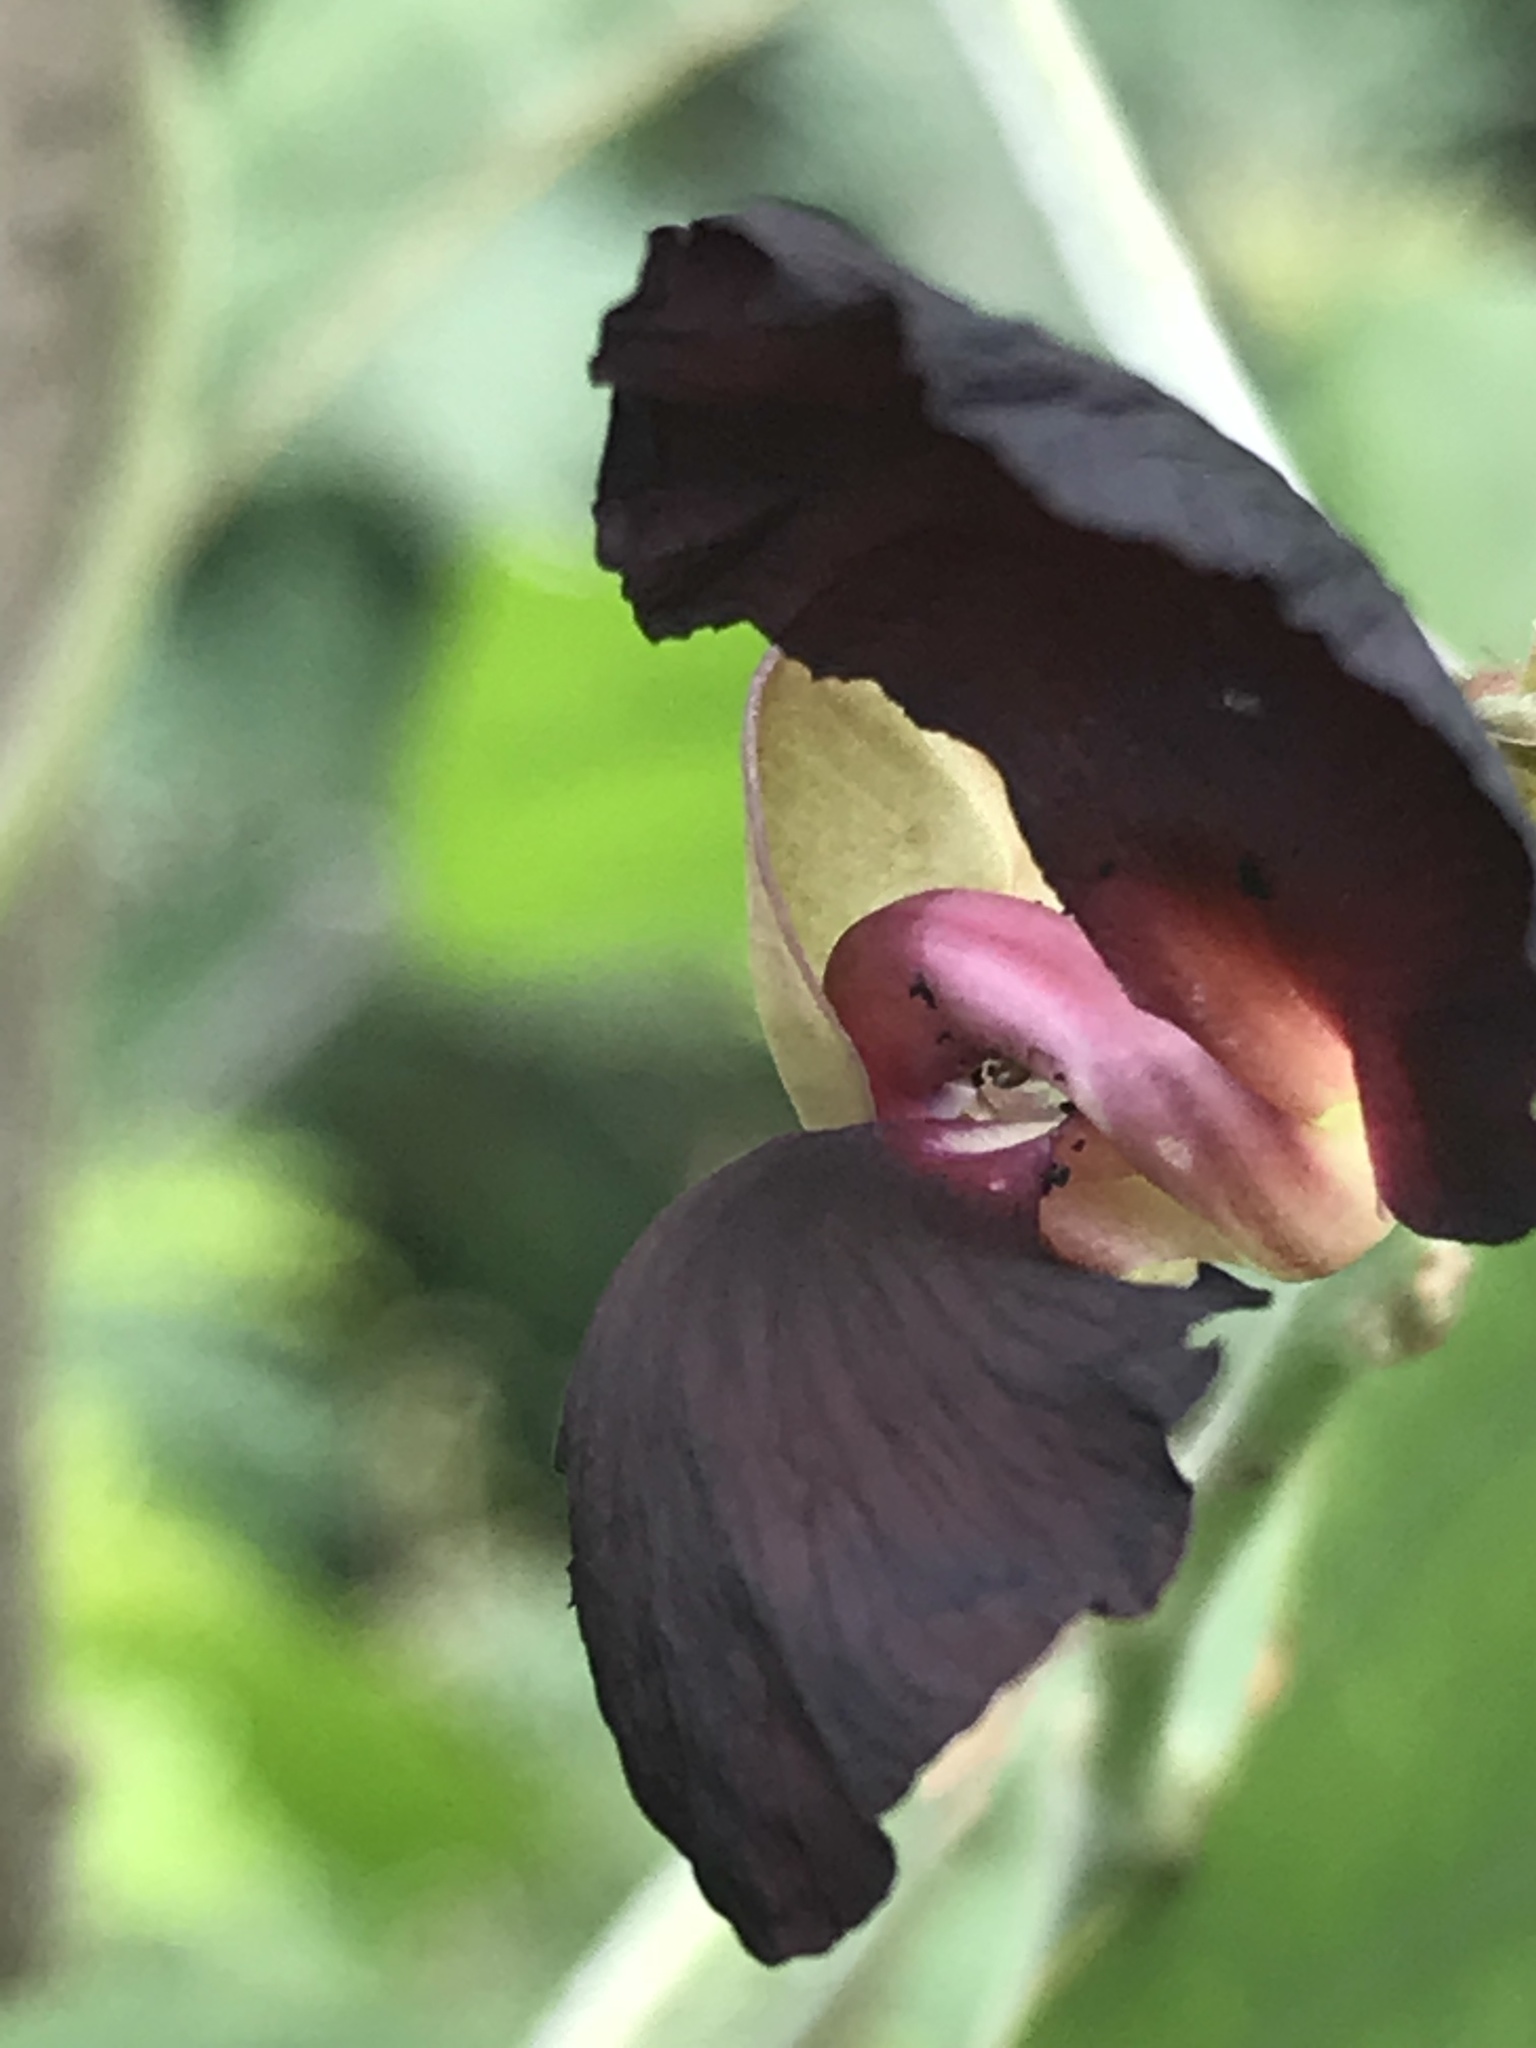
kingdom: Plantae
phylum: Tracheophyta
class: Magnoliopsida
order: Fabales
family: Fabaceae
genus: Macroptilium
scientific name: Macroptilium atropurpureum
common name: Purple bushbean
